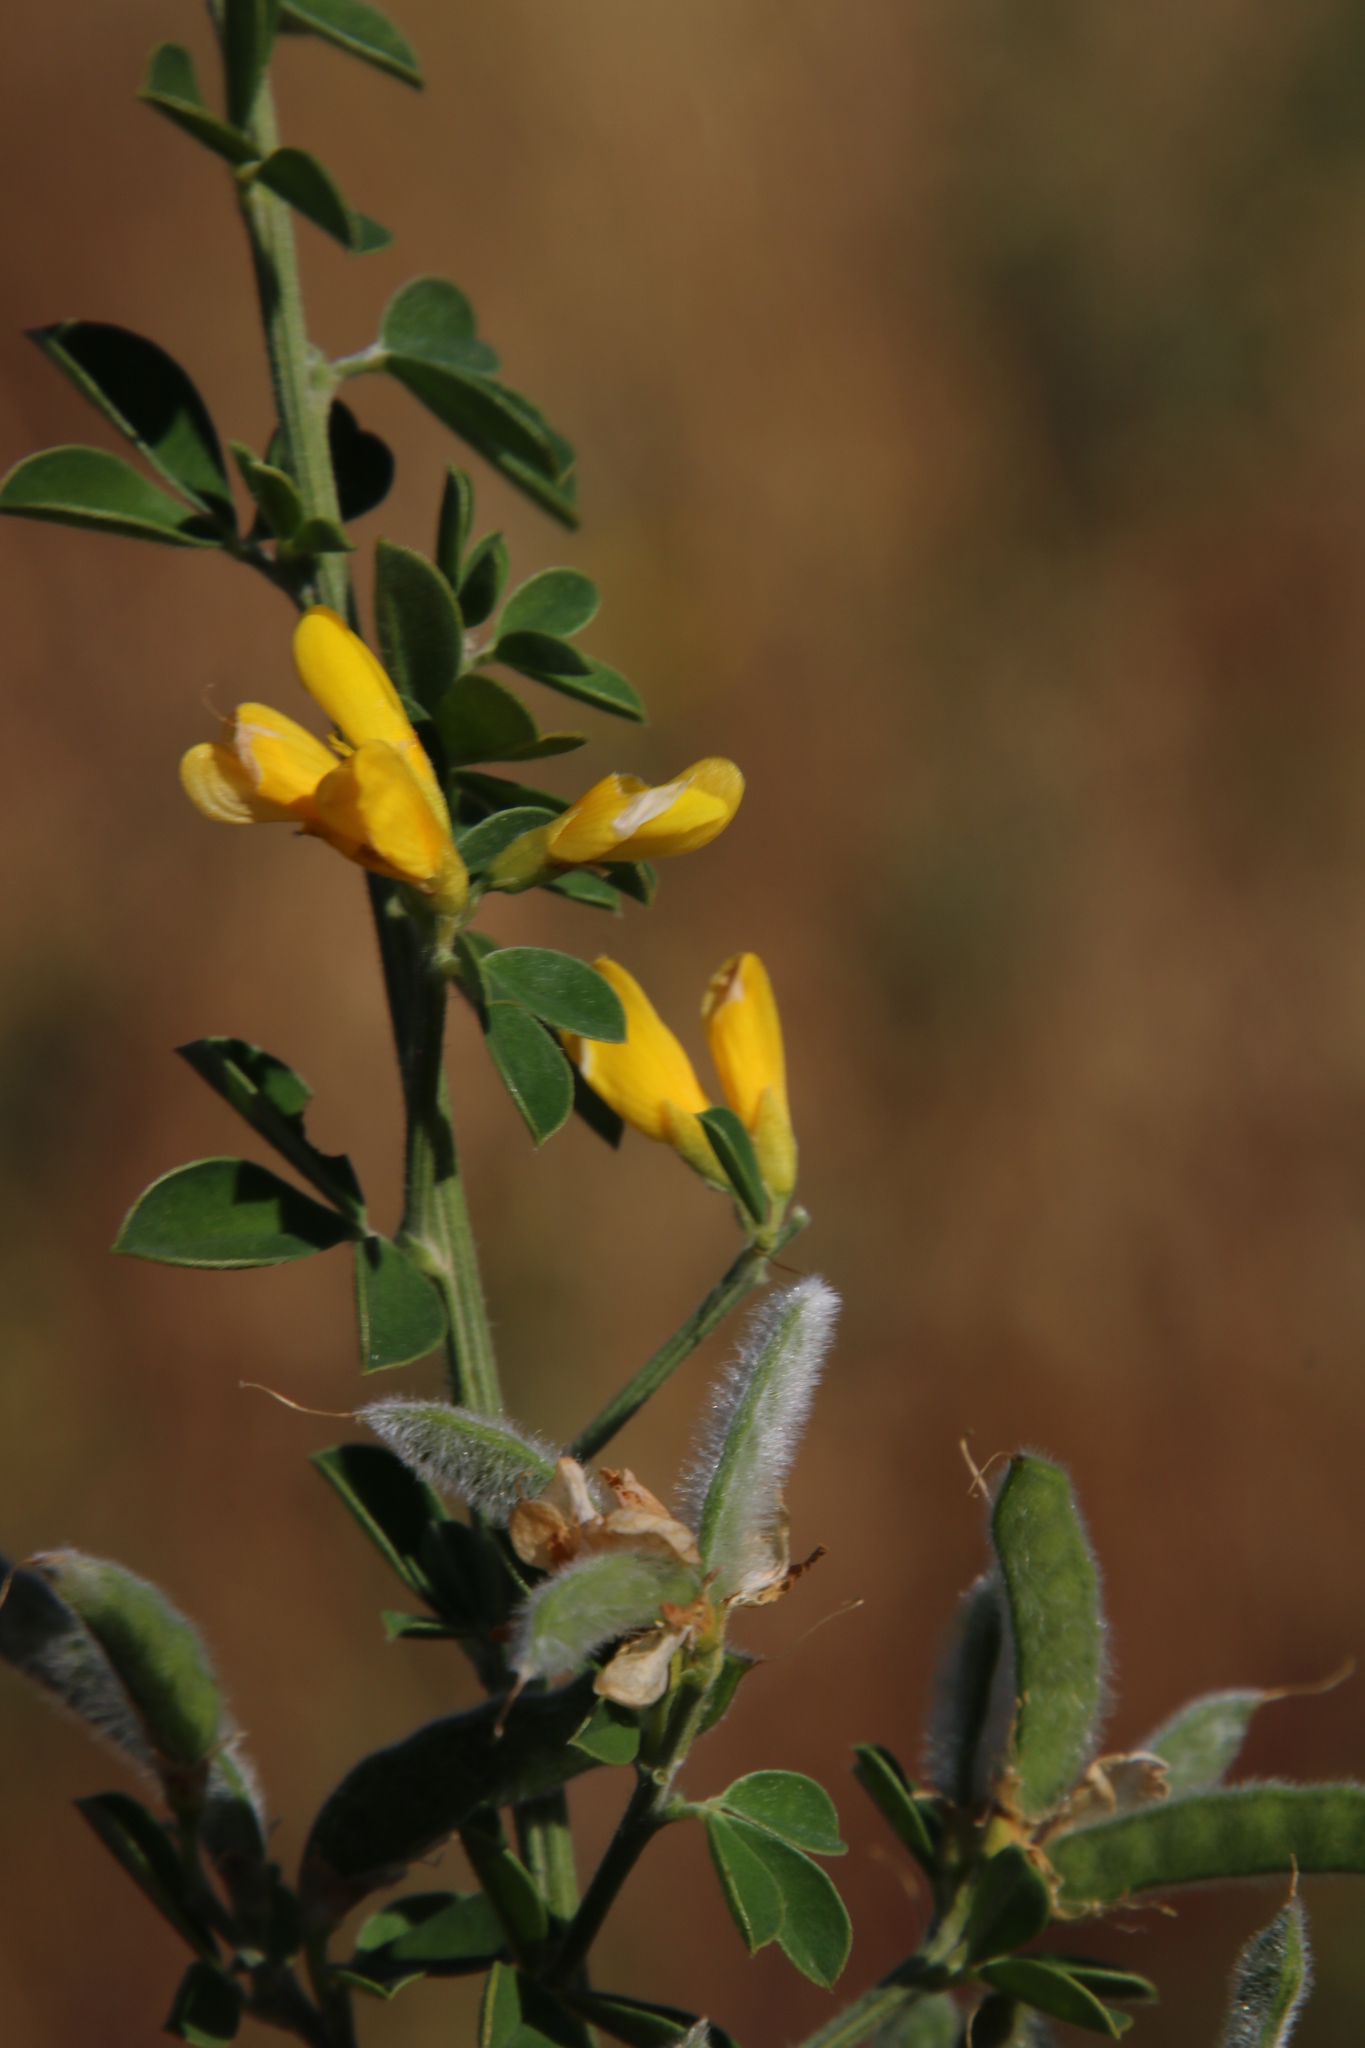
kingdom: Plantae
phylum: Tracheophyta
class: Magnoliopsida
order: Fabales
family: Fabaceae
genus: Genista
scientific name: Genista monspessulana
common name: Montpellier broom
